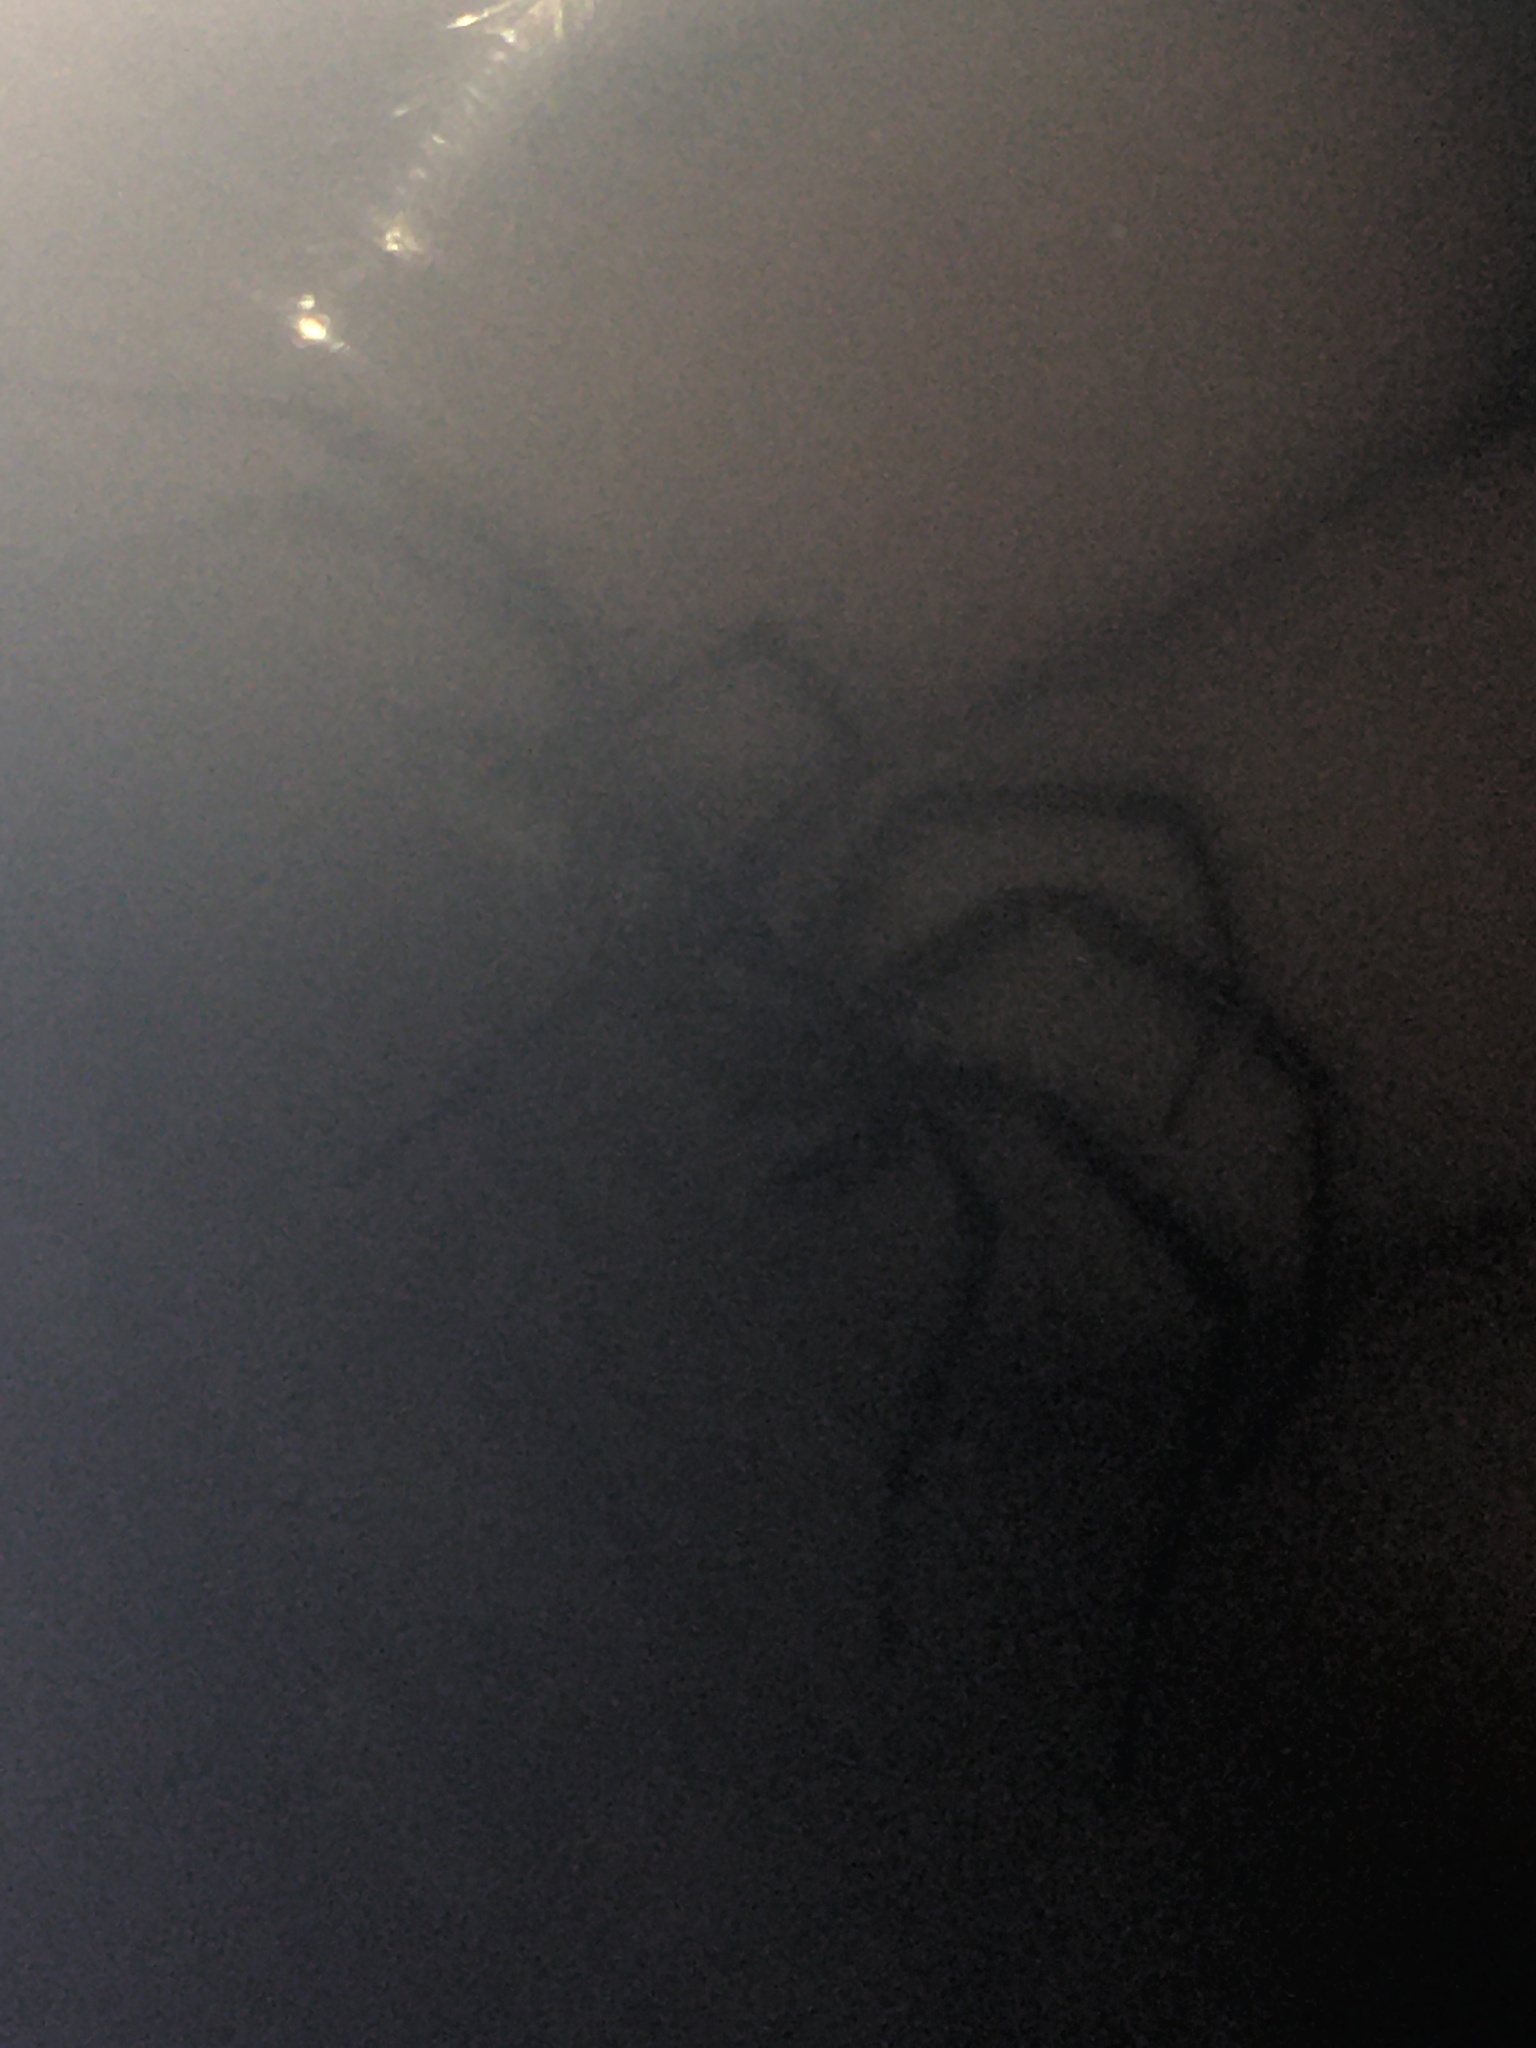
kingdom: Animalia
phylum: Arthropoda
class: Arachnida
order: Araneae
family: Agelenidae
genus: Agelenopsis
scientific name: Agelenopsis
